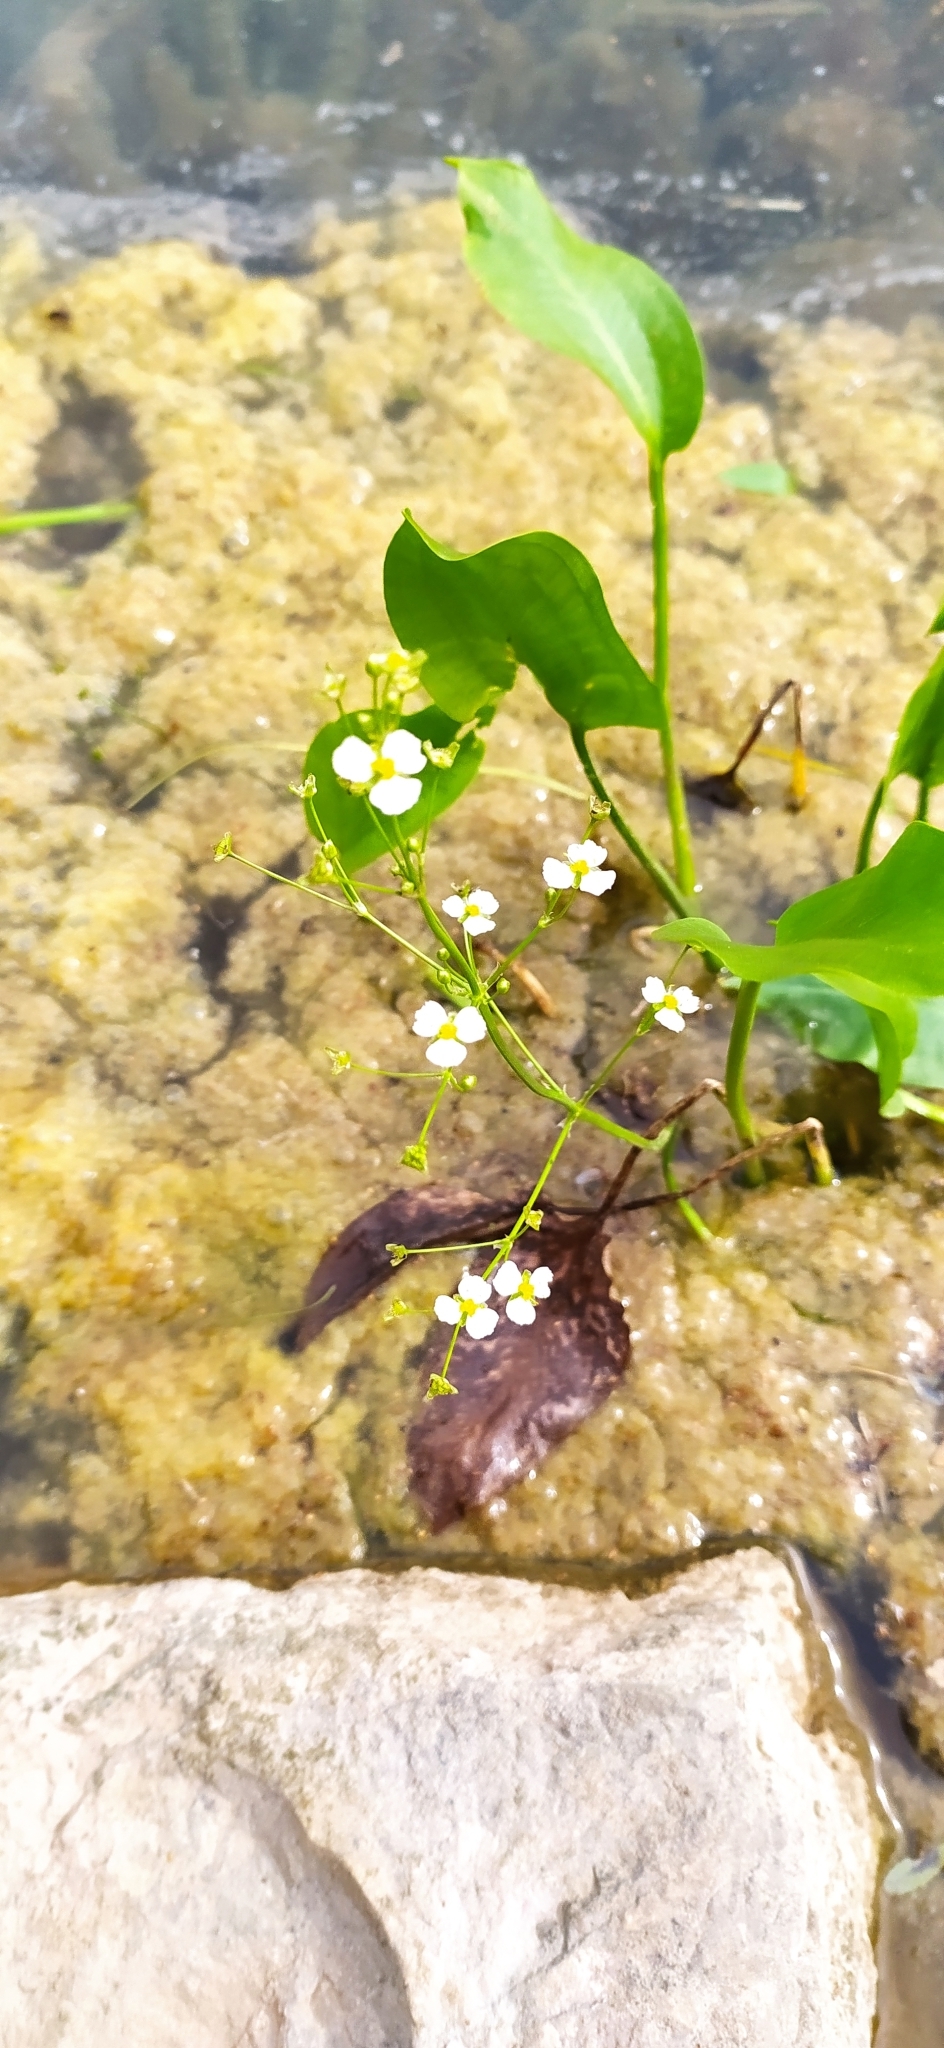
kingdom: Plantae
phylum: Tracheophyta
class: Liliopsida
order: Alismatales
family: Alismataceae
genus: Alisma
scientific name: Alisma plantago-aquatica
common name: Water-plantain
